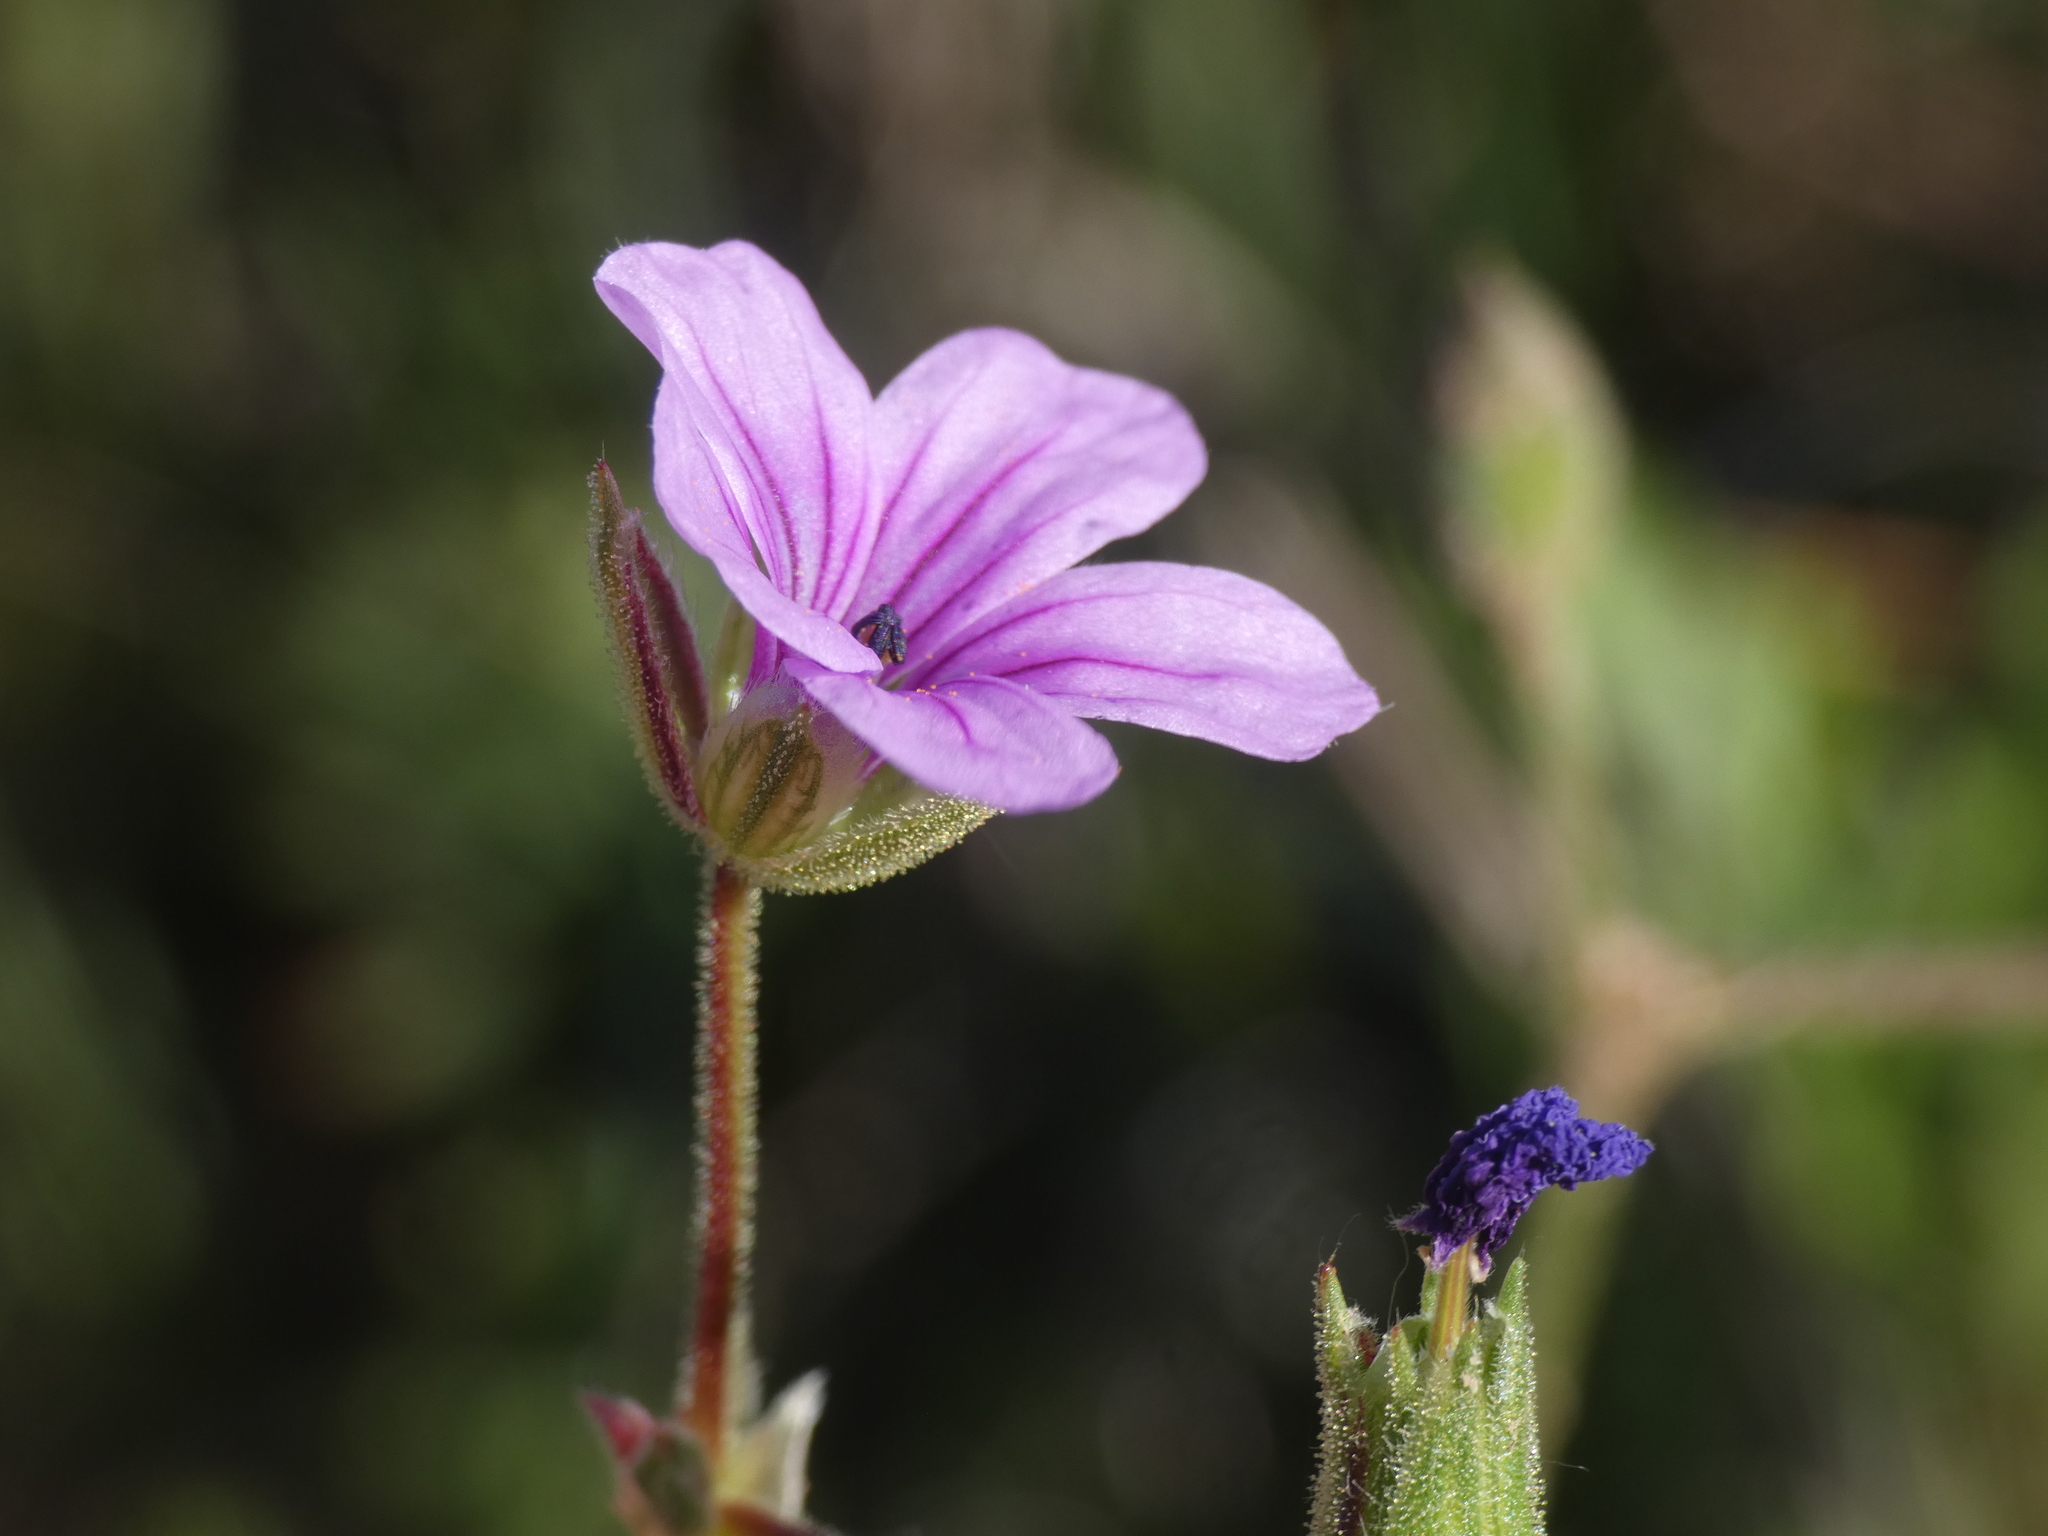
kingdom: Plantae
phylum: Tracheophyta
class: Magnoliopsida
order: Geraniales
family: Geraniaceae
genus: Erodium
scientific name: Erodium botrys
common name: Mediterranean stork's-bill
